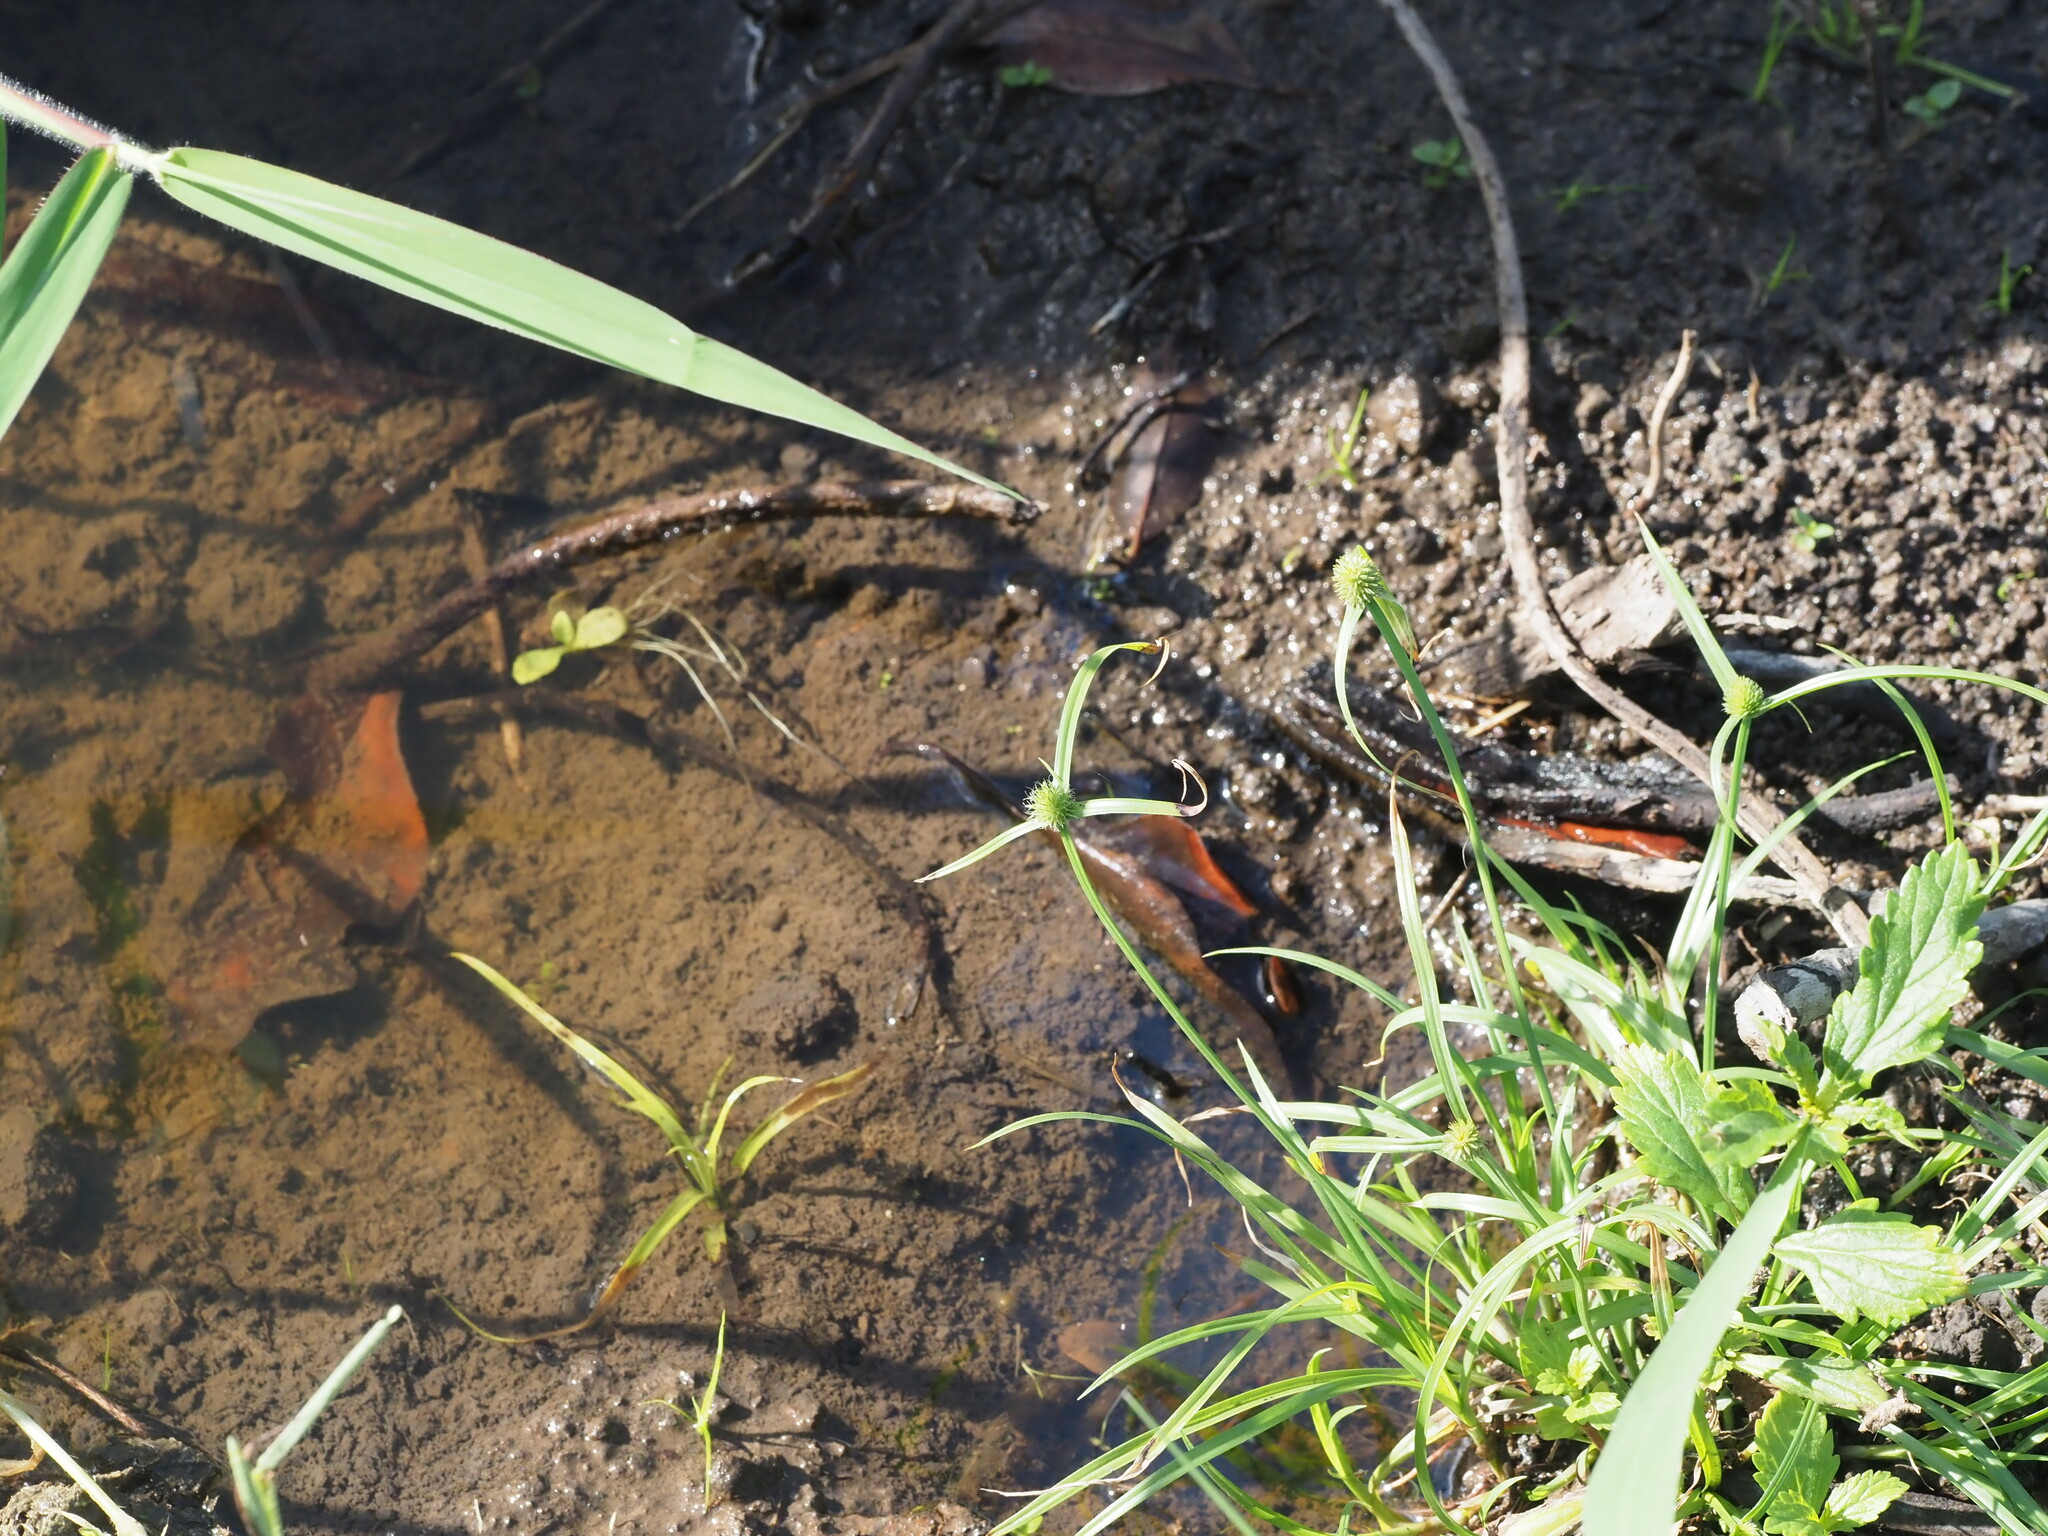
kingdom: Plantae
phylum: Tracheophyta
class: Liliopsida
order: Poales
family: Cyperaceae
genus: Cyperus
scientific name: Cyperus brevifolius
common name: Globe kyllinga
